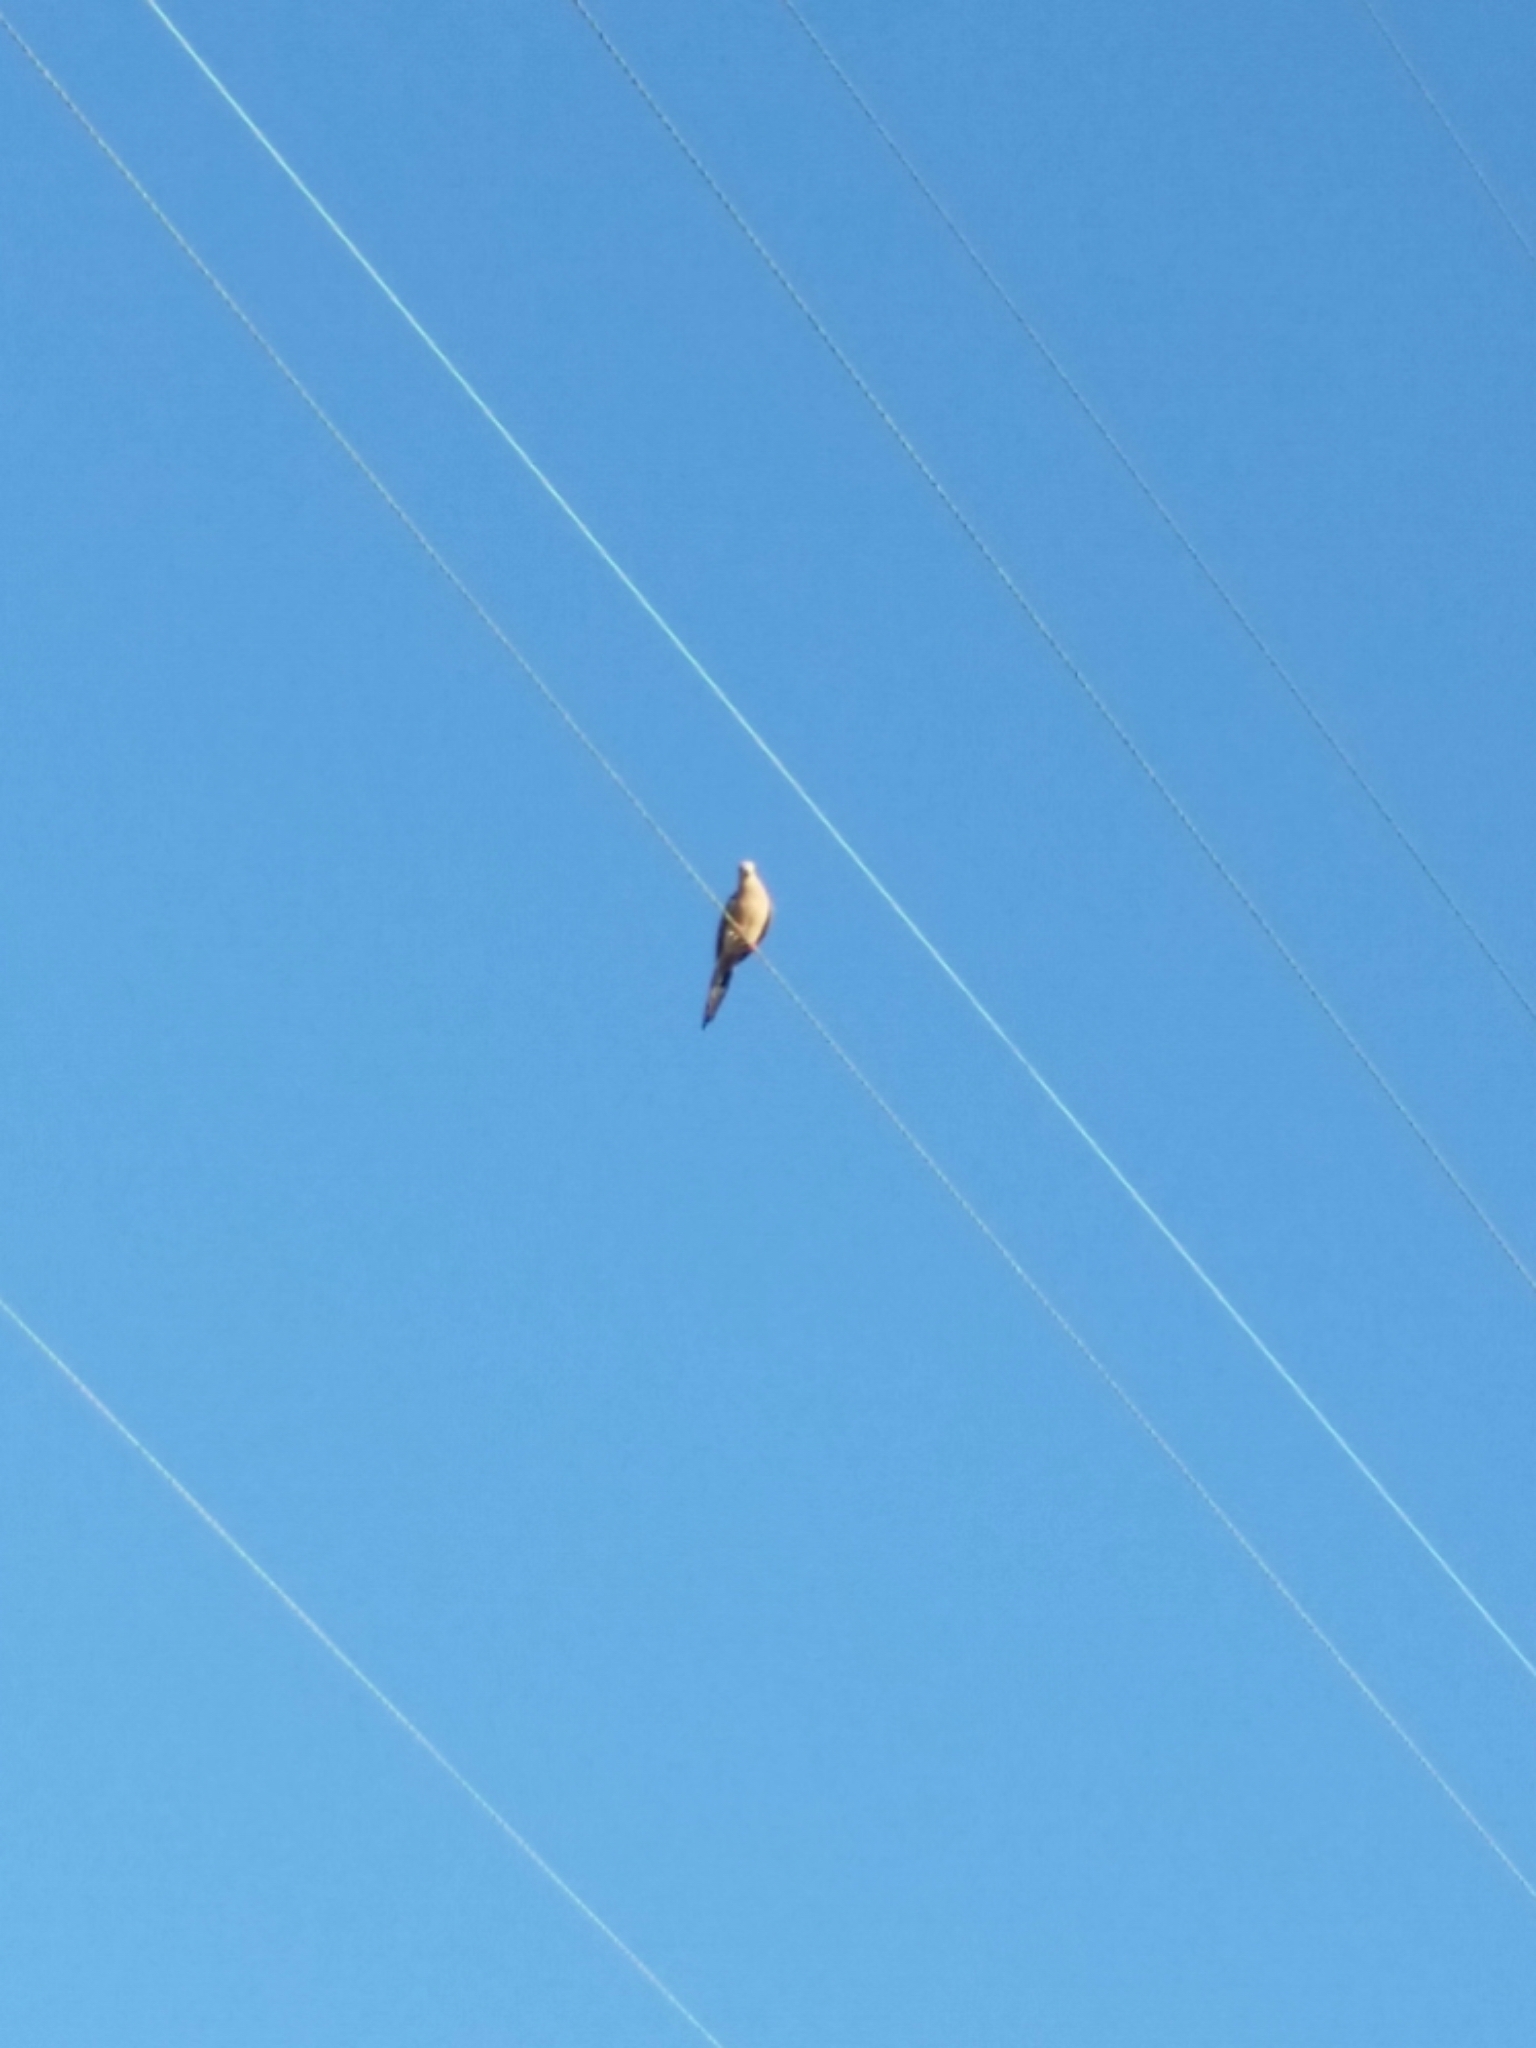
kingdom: Animalia
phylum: Chordata
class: Aves
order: Columbiformes
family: Columbidae
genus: Zenaida
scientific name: Zenaida macroura
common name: Mourning dove
